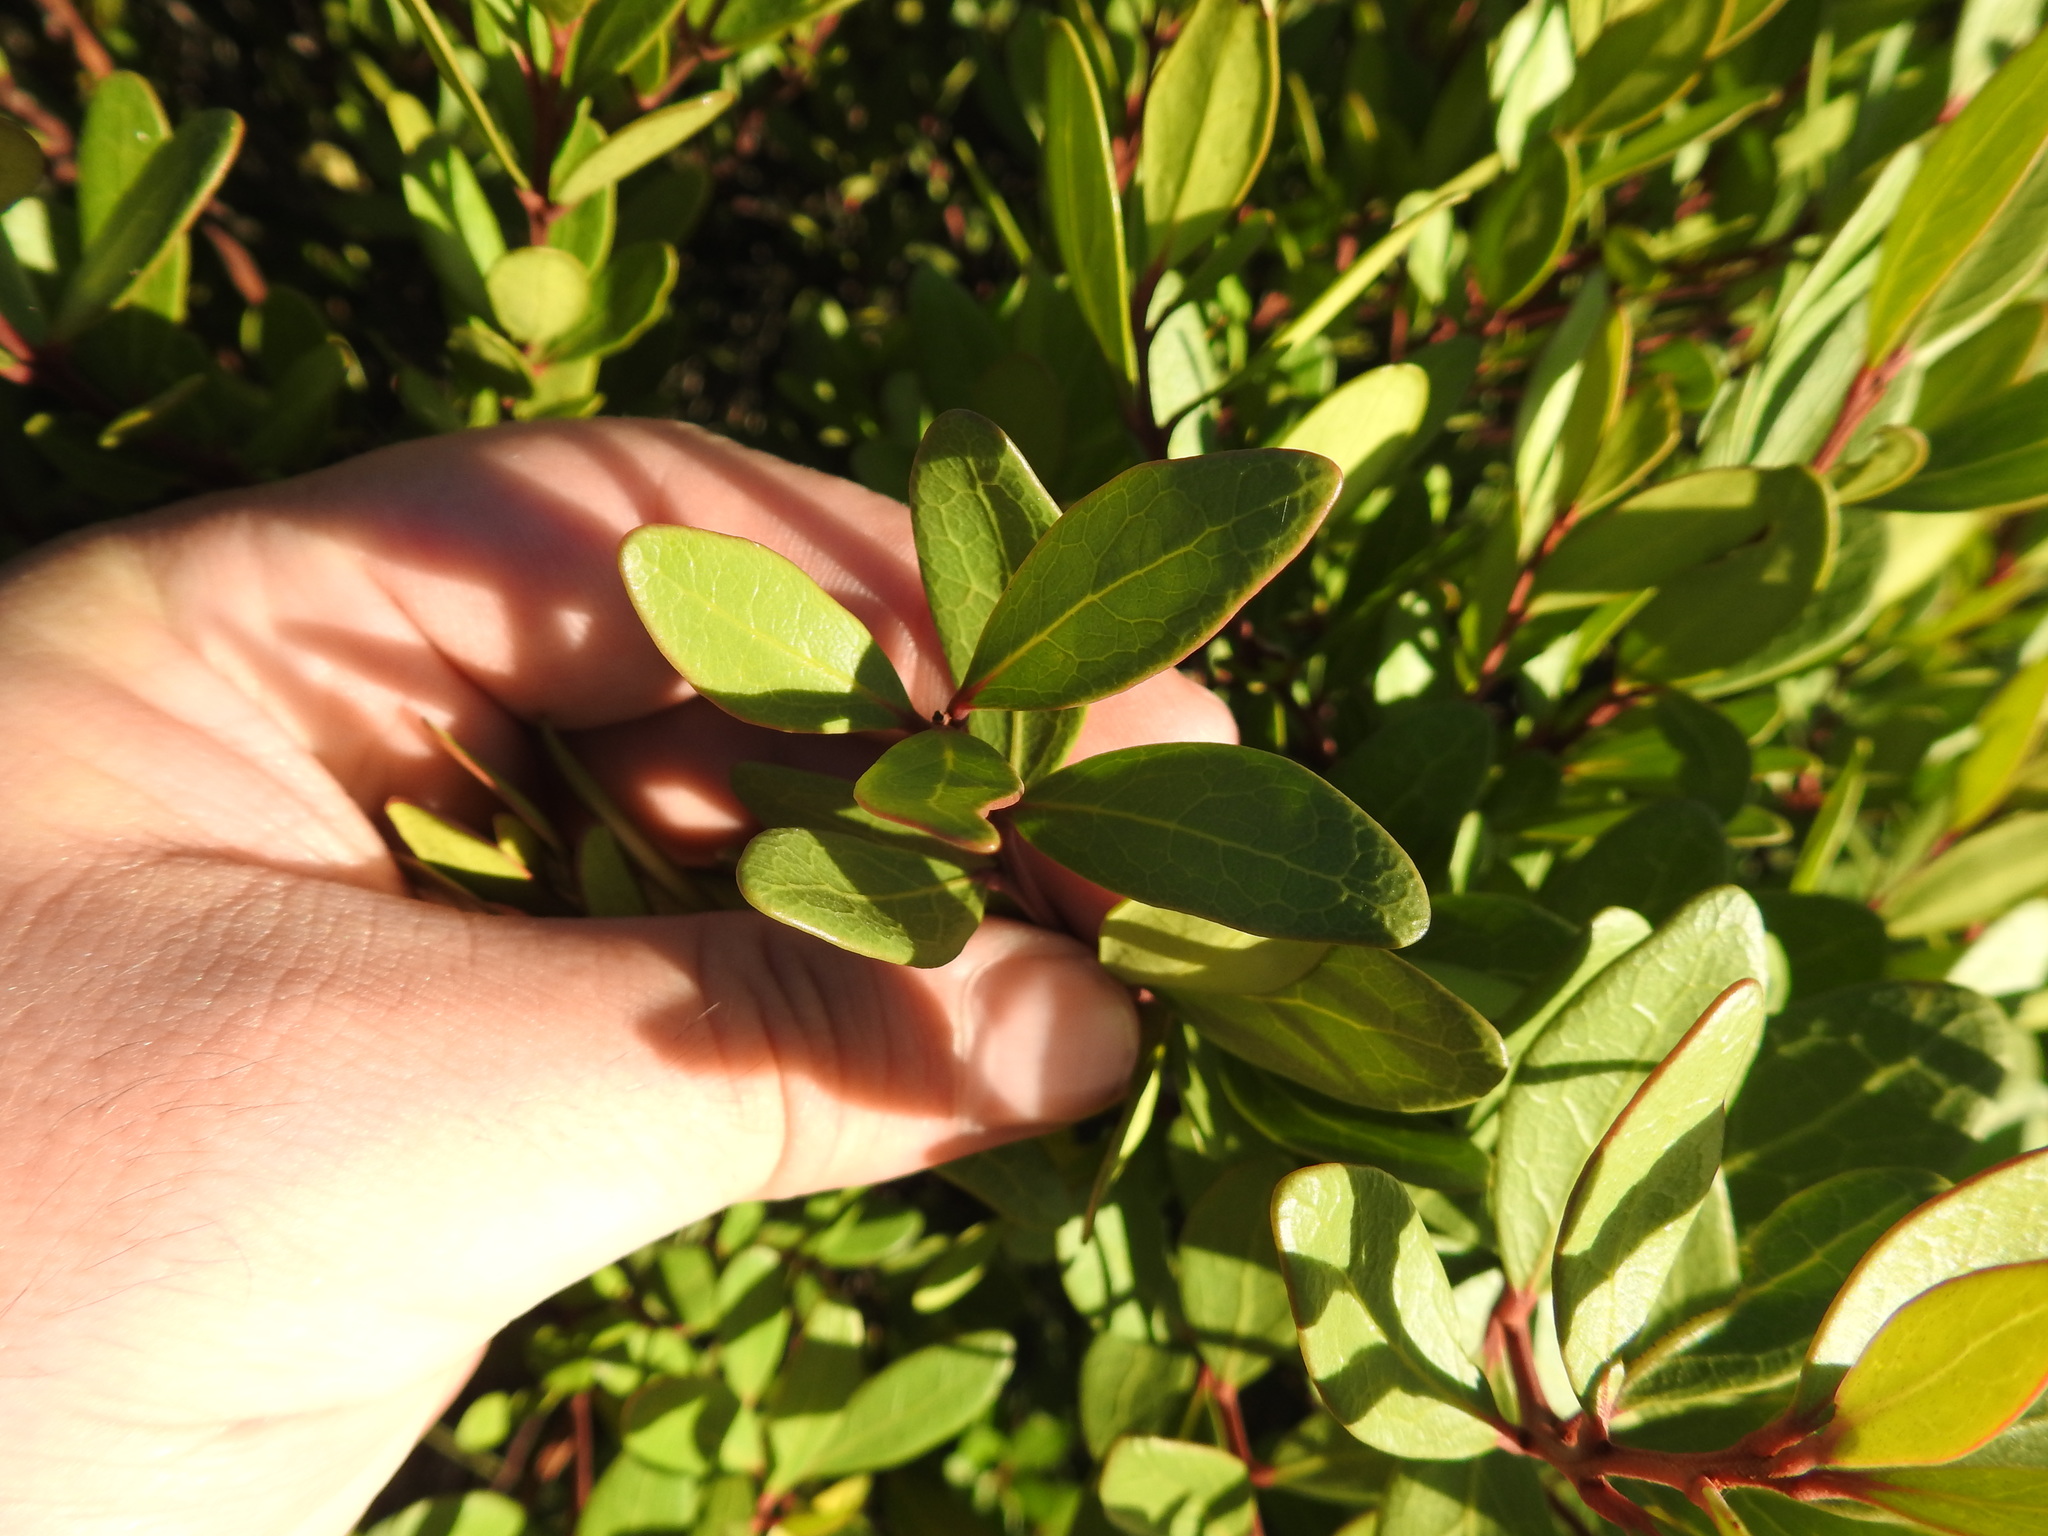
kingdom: Plantae
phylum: Tracheophyta
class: Magnoliopsida
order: Ericales
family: Ebenaceae
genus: Euclea
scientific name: Euclea racemosa
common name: Dune guarri
